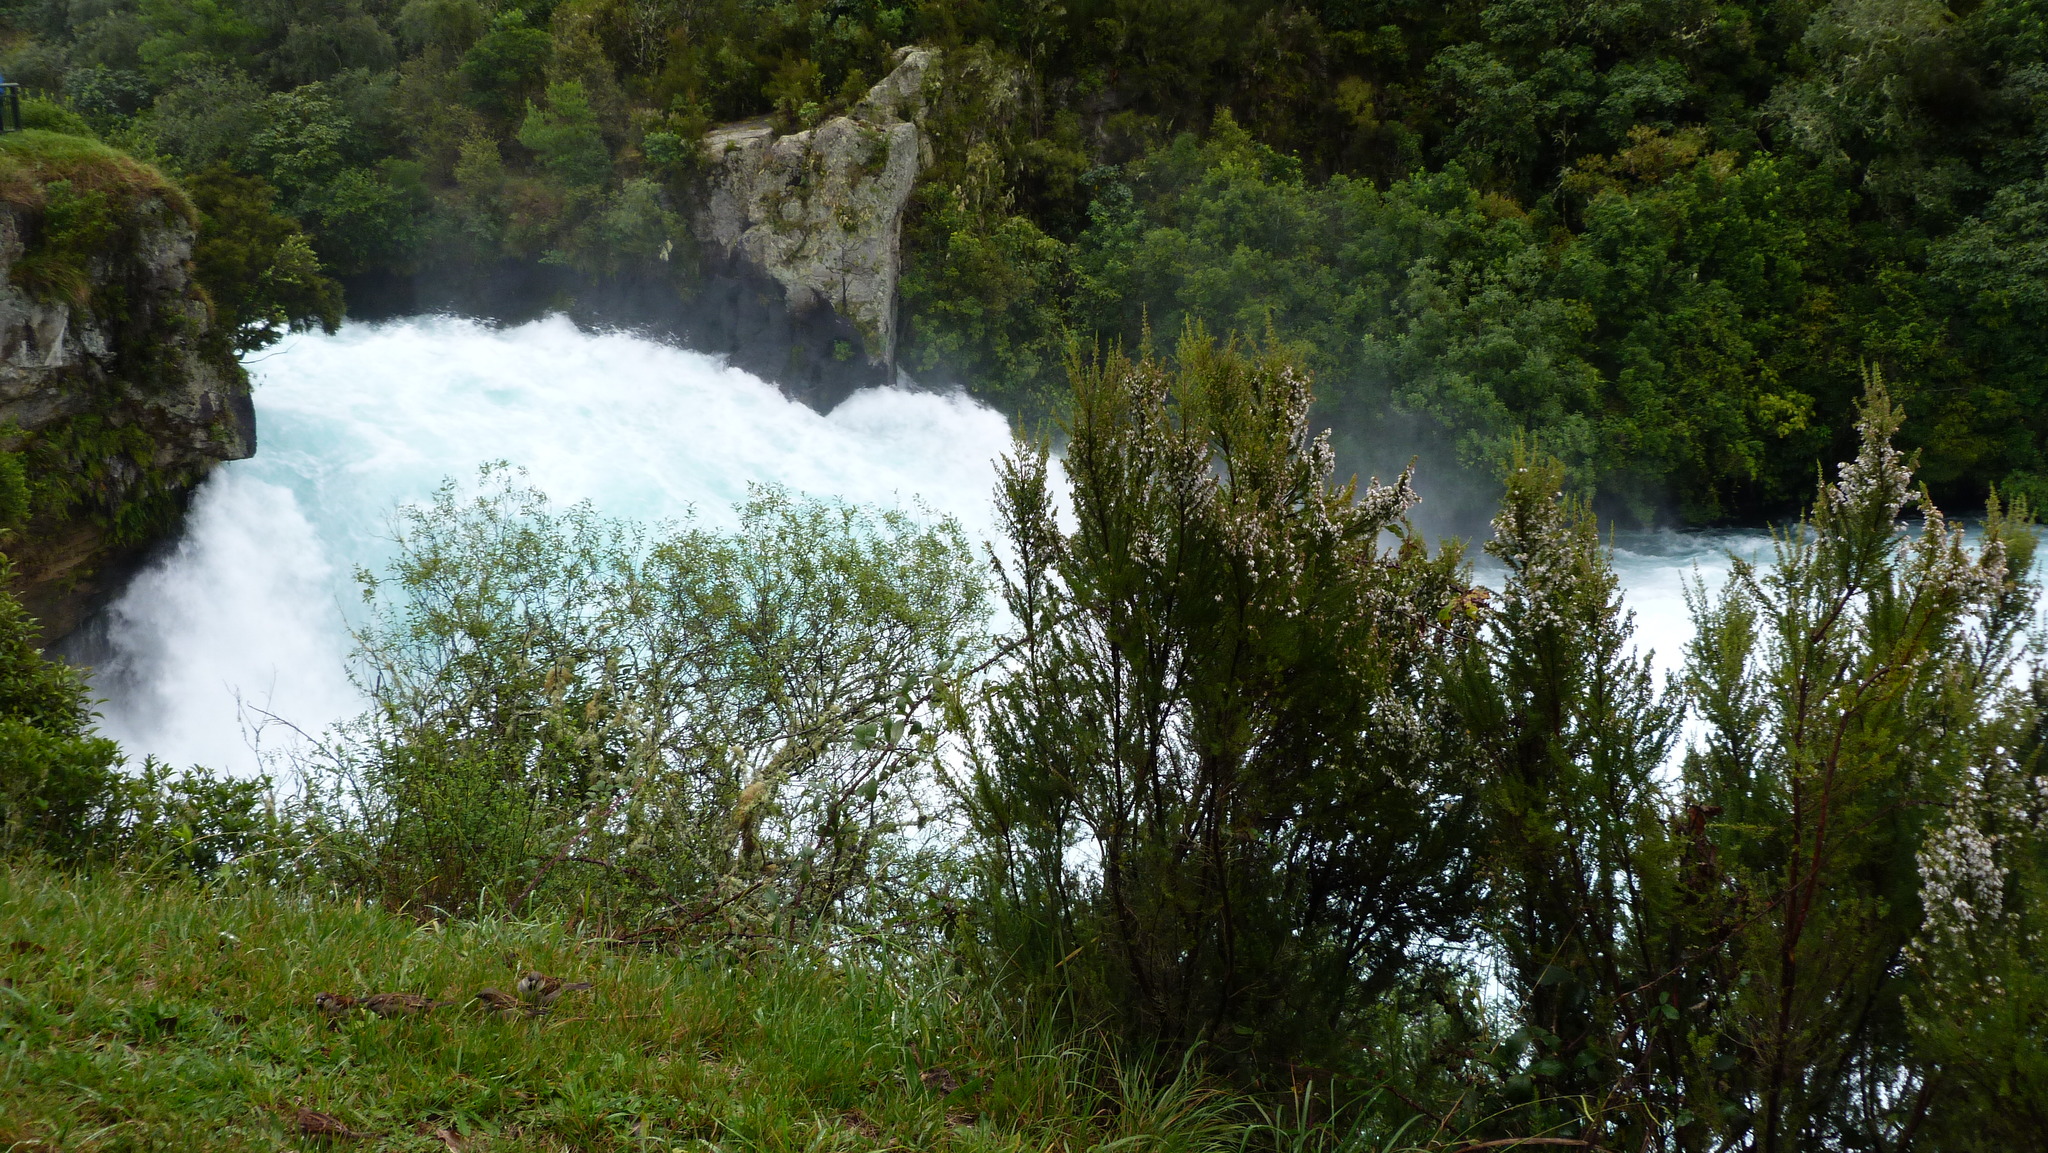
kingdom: Plantae
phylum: Tracheophyta
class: Magnoliopsida
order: Ericales
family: Ericaceae
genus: Erica
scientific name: Erica lusitanica
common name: Spanish heath
